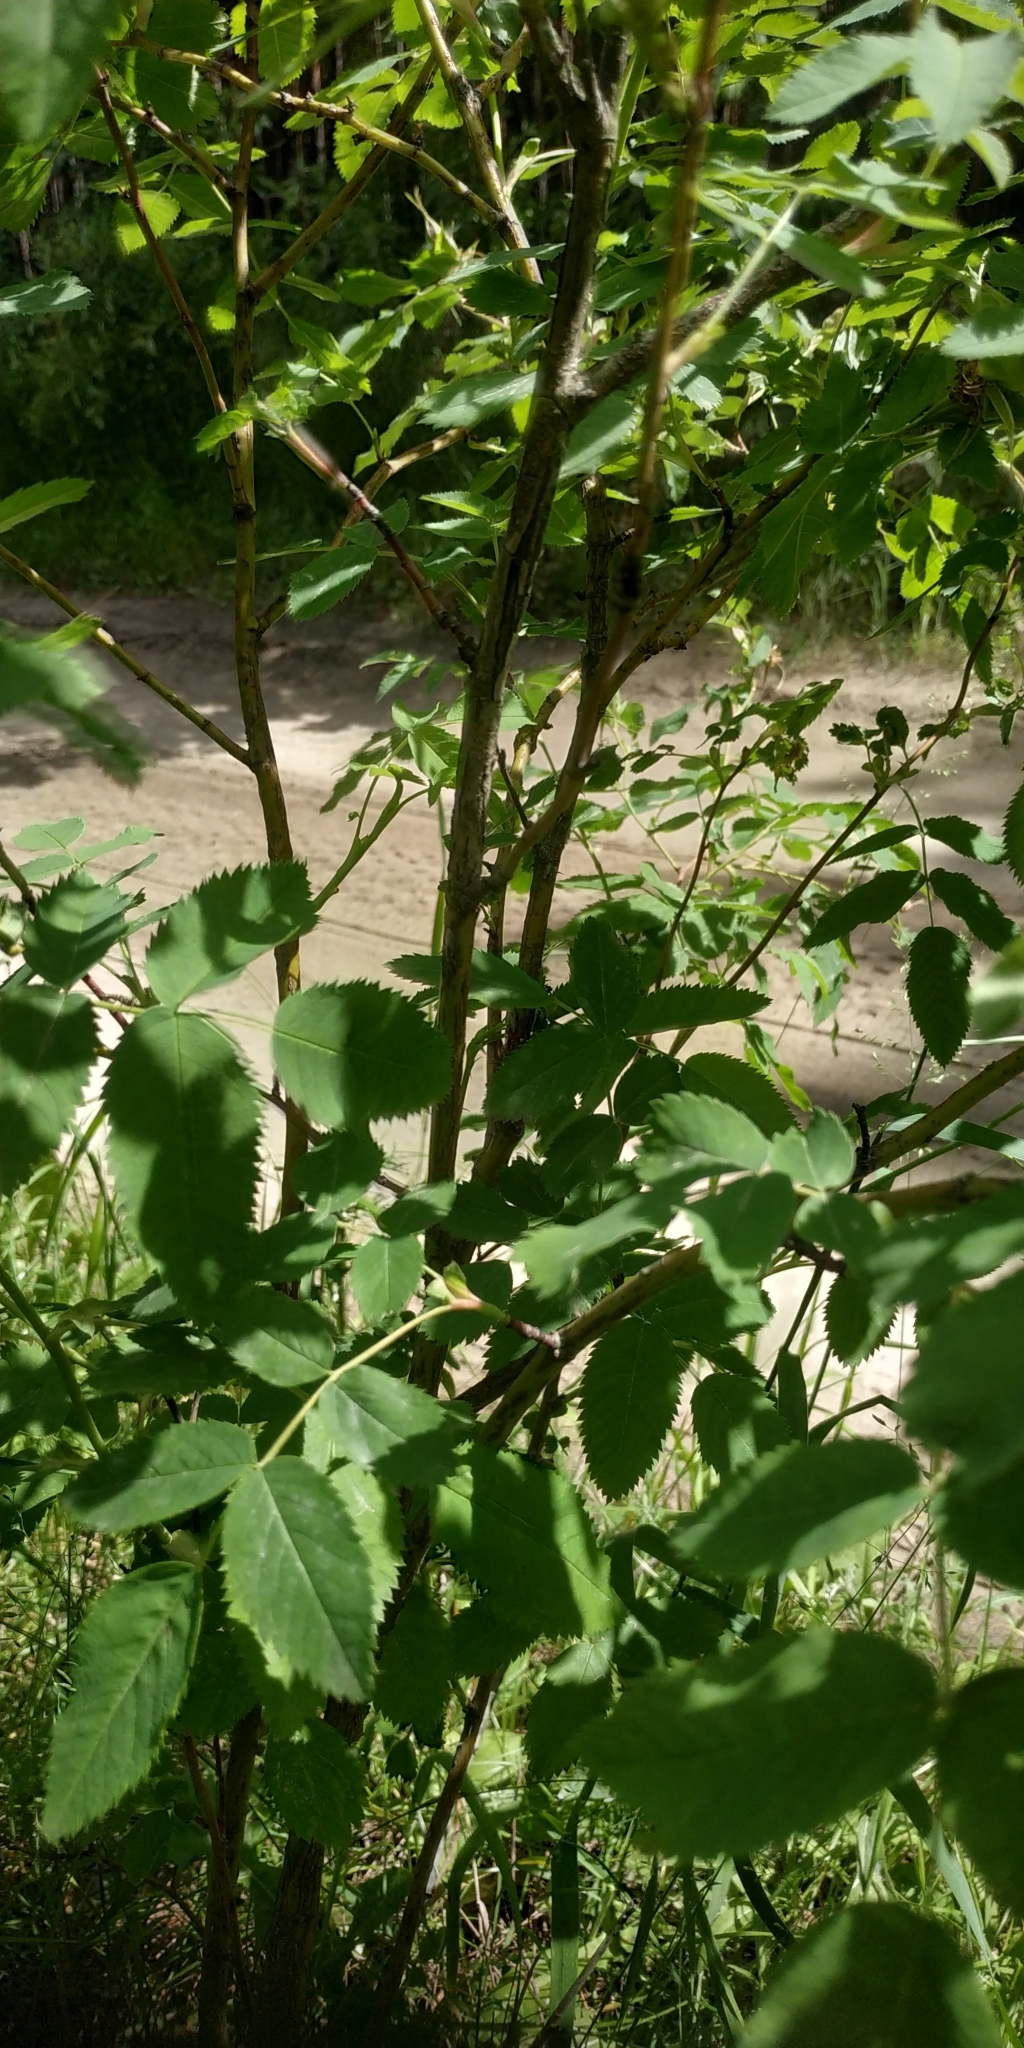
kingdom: Plantae
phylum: Tracheophyta
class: Magnoliopsida
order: Rosales
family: Rosaceae
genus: Rosa
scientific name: Rosa majalis
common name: Cinnamon rose
